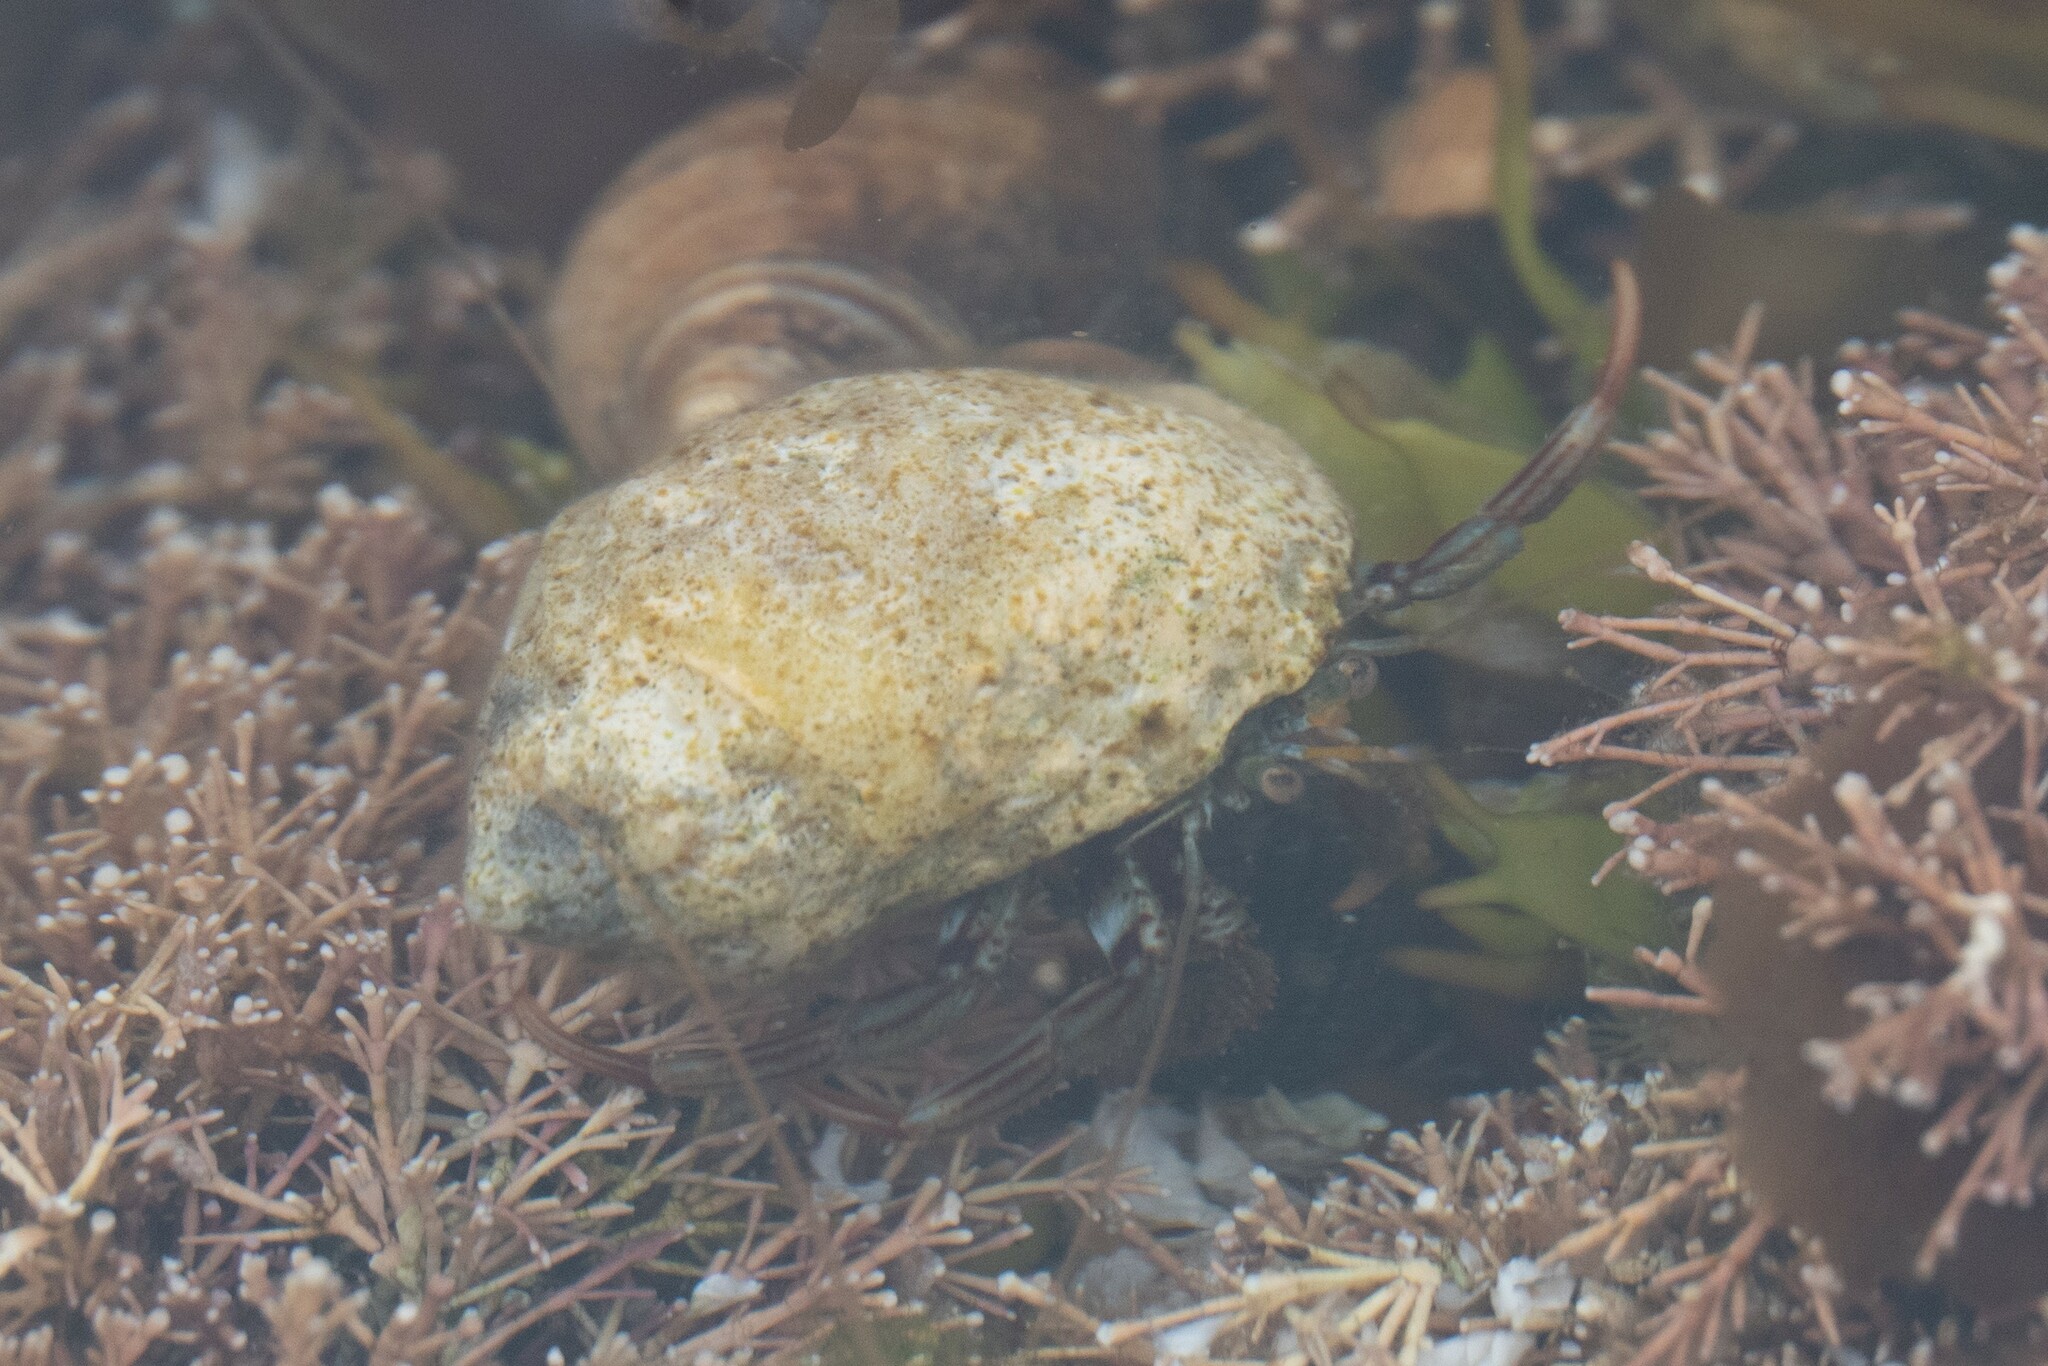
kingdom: Animalia
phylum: Arthropoda
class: Malacostraca
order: Decapoda
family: Paguridae
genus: Pagurus
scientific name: Pagurus bernhardus
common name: Hermit crab
